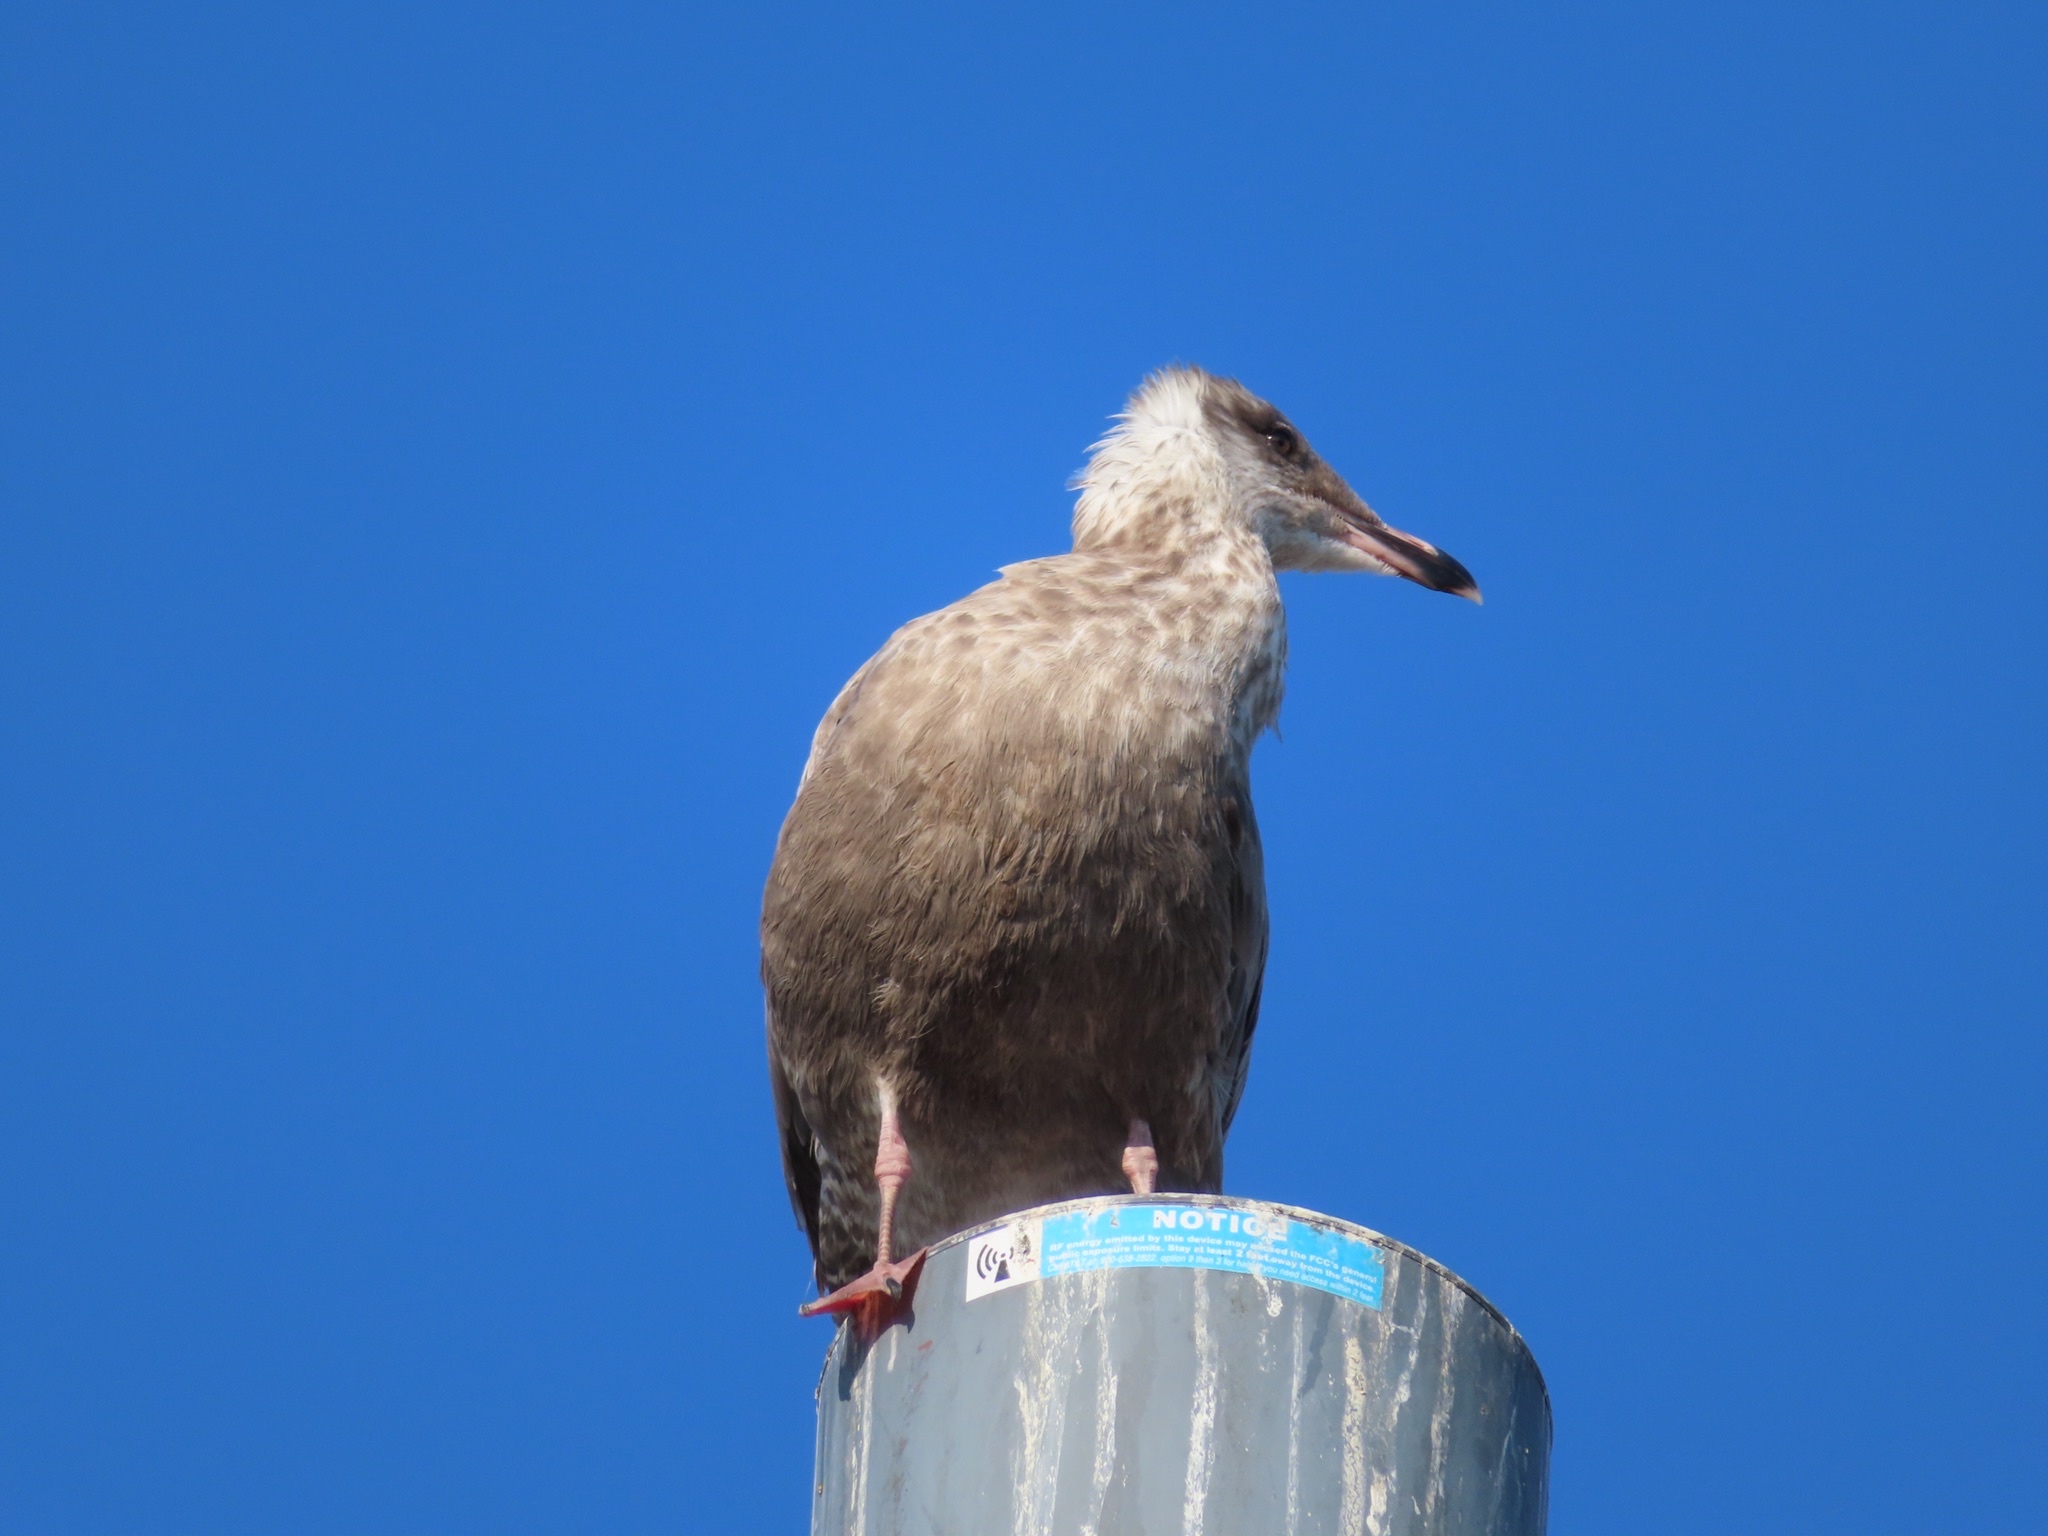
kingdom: Animalia
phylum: Chordata
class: Aves
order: Charadriiformes
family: Laridae
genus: Larus
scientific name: Larus argentatus
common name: Herring gull
